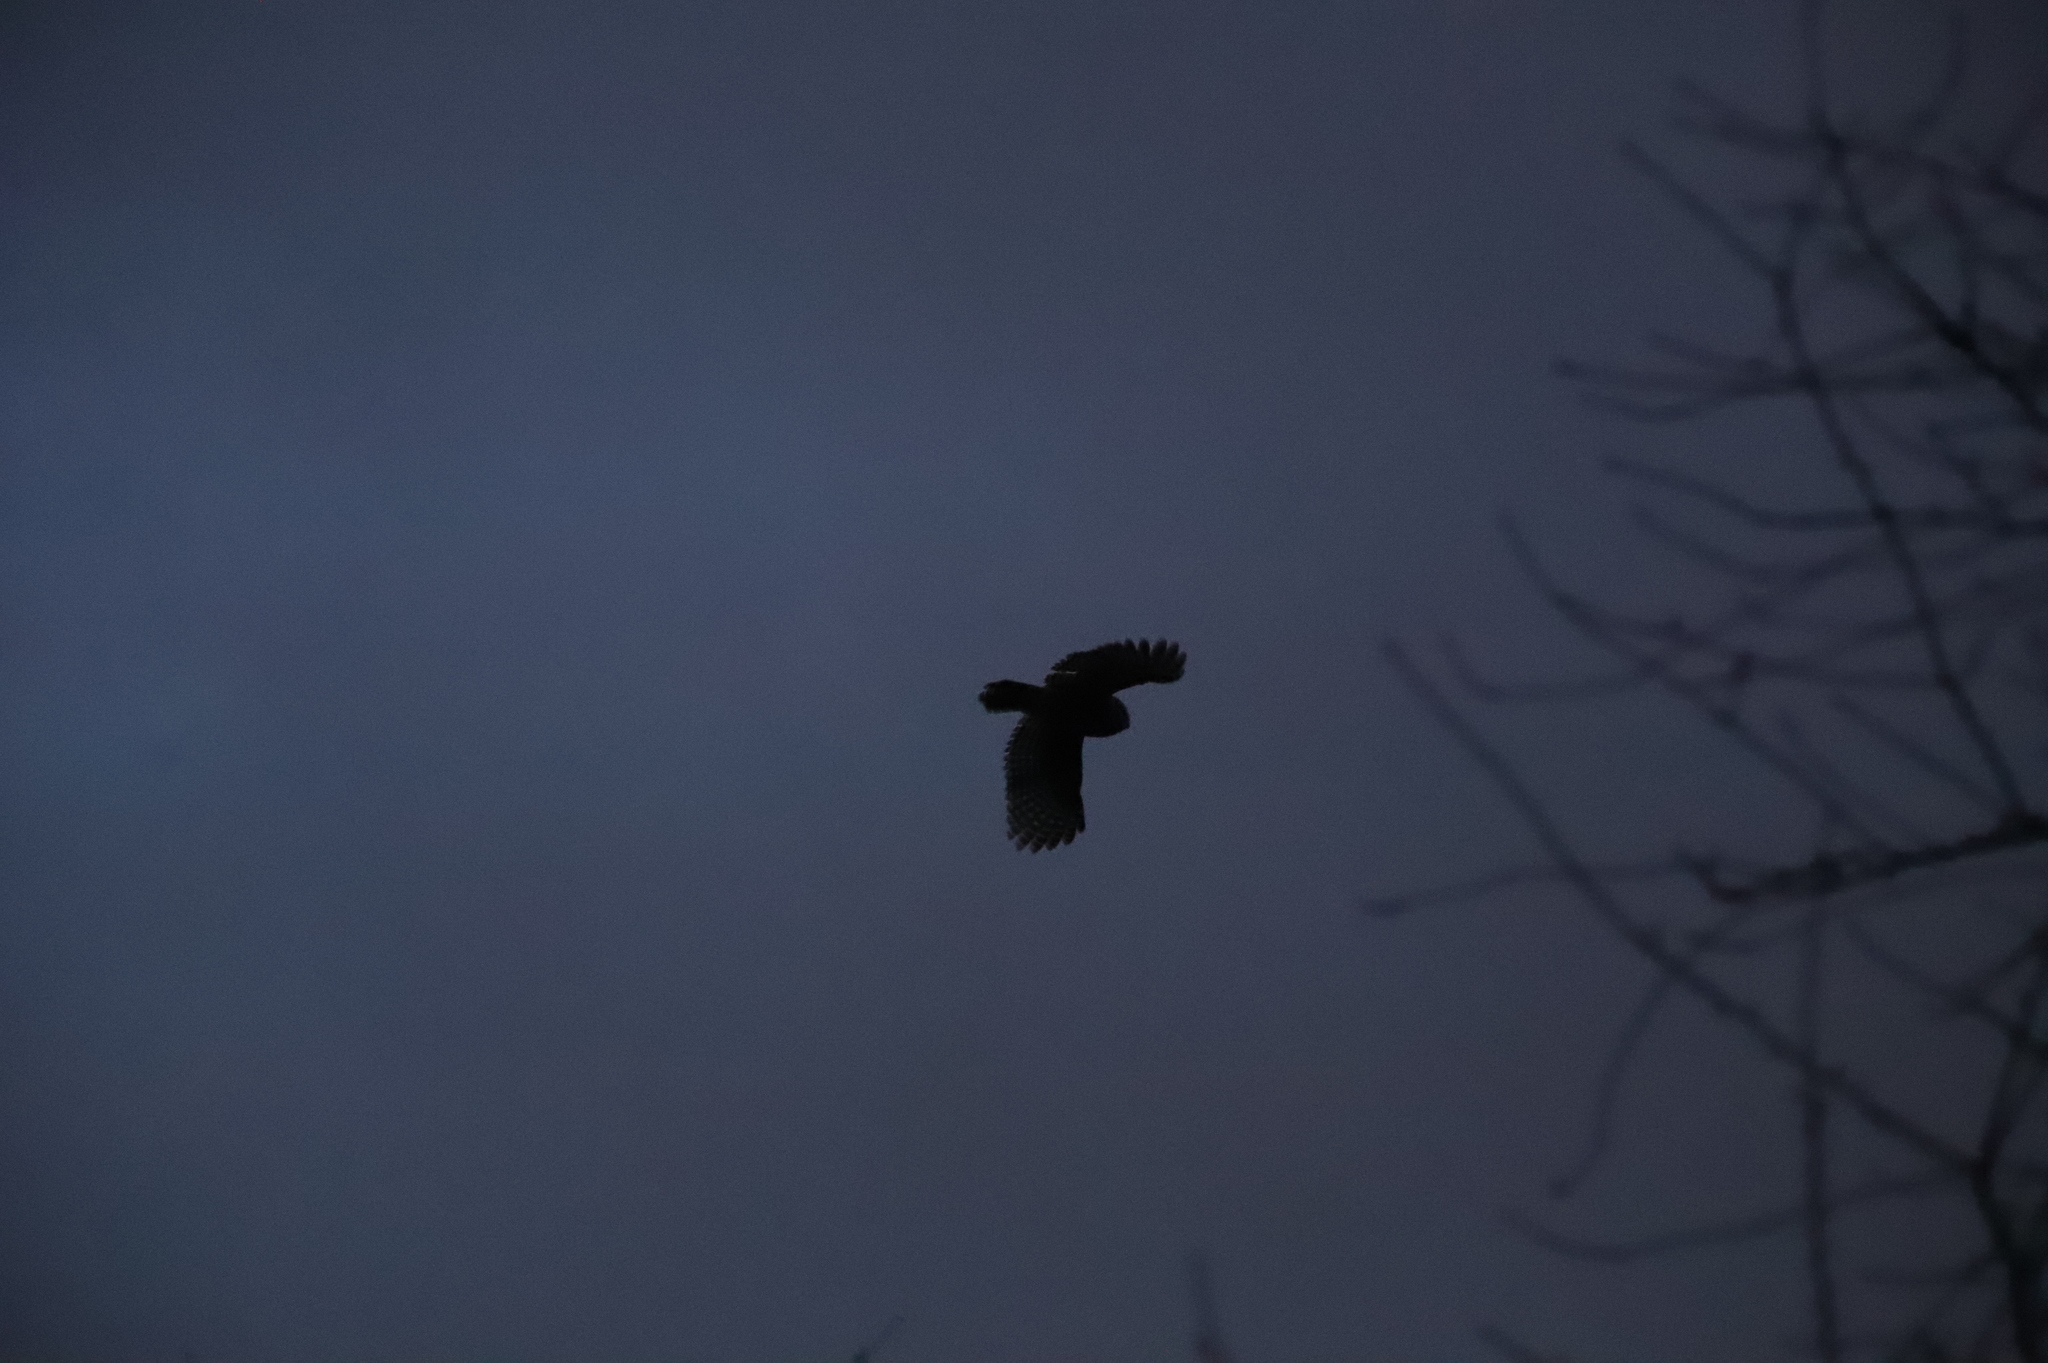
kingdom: Animalia
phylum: Chordata
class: Aves
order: Strigiformes
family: Strigidae
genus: Strix
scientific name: Strix varia
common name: Barred owl
